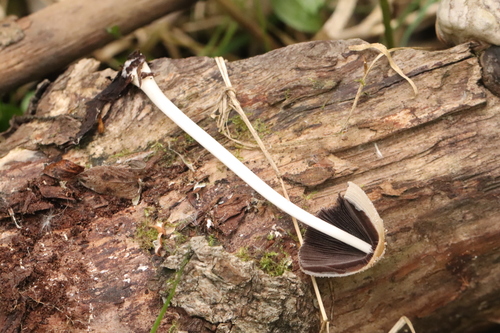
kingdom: Fungi
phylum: Basidiomycota
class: Agaricomycetes
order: Agaricales
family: Psathyrellaceae
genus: Coprinellus
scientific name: Coprinellus domesticus
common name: Firerug inkcap
